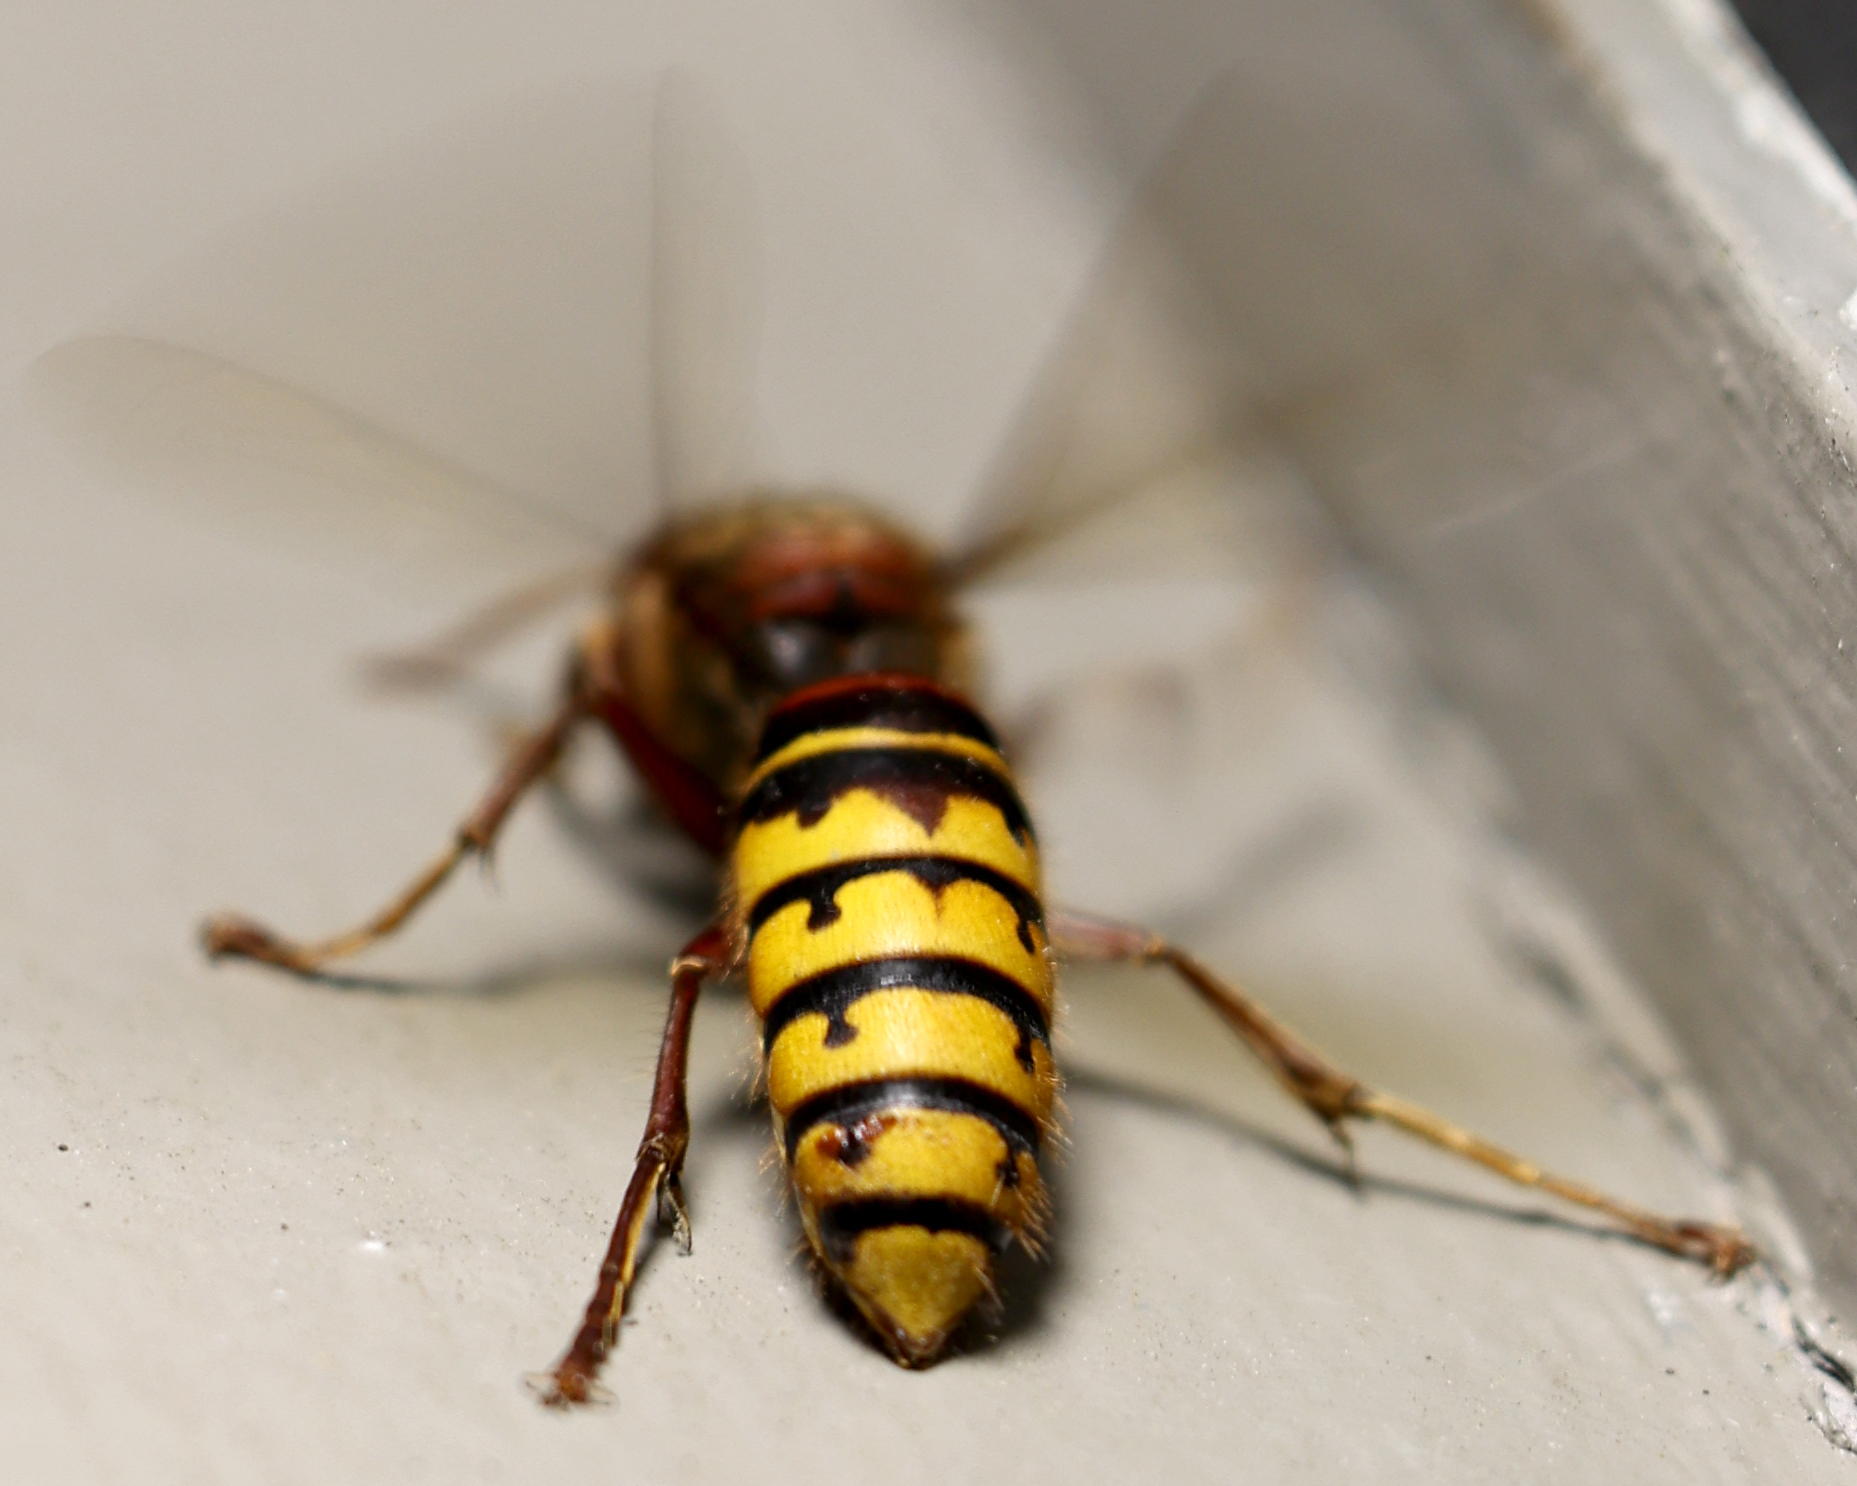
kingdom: Animalia
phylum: Arthropoda
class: Insecta
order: Hymenoptera
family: Vespidae
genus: Vespa
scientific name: Vespa crabro
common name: Hornet
